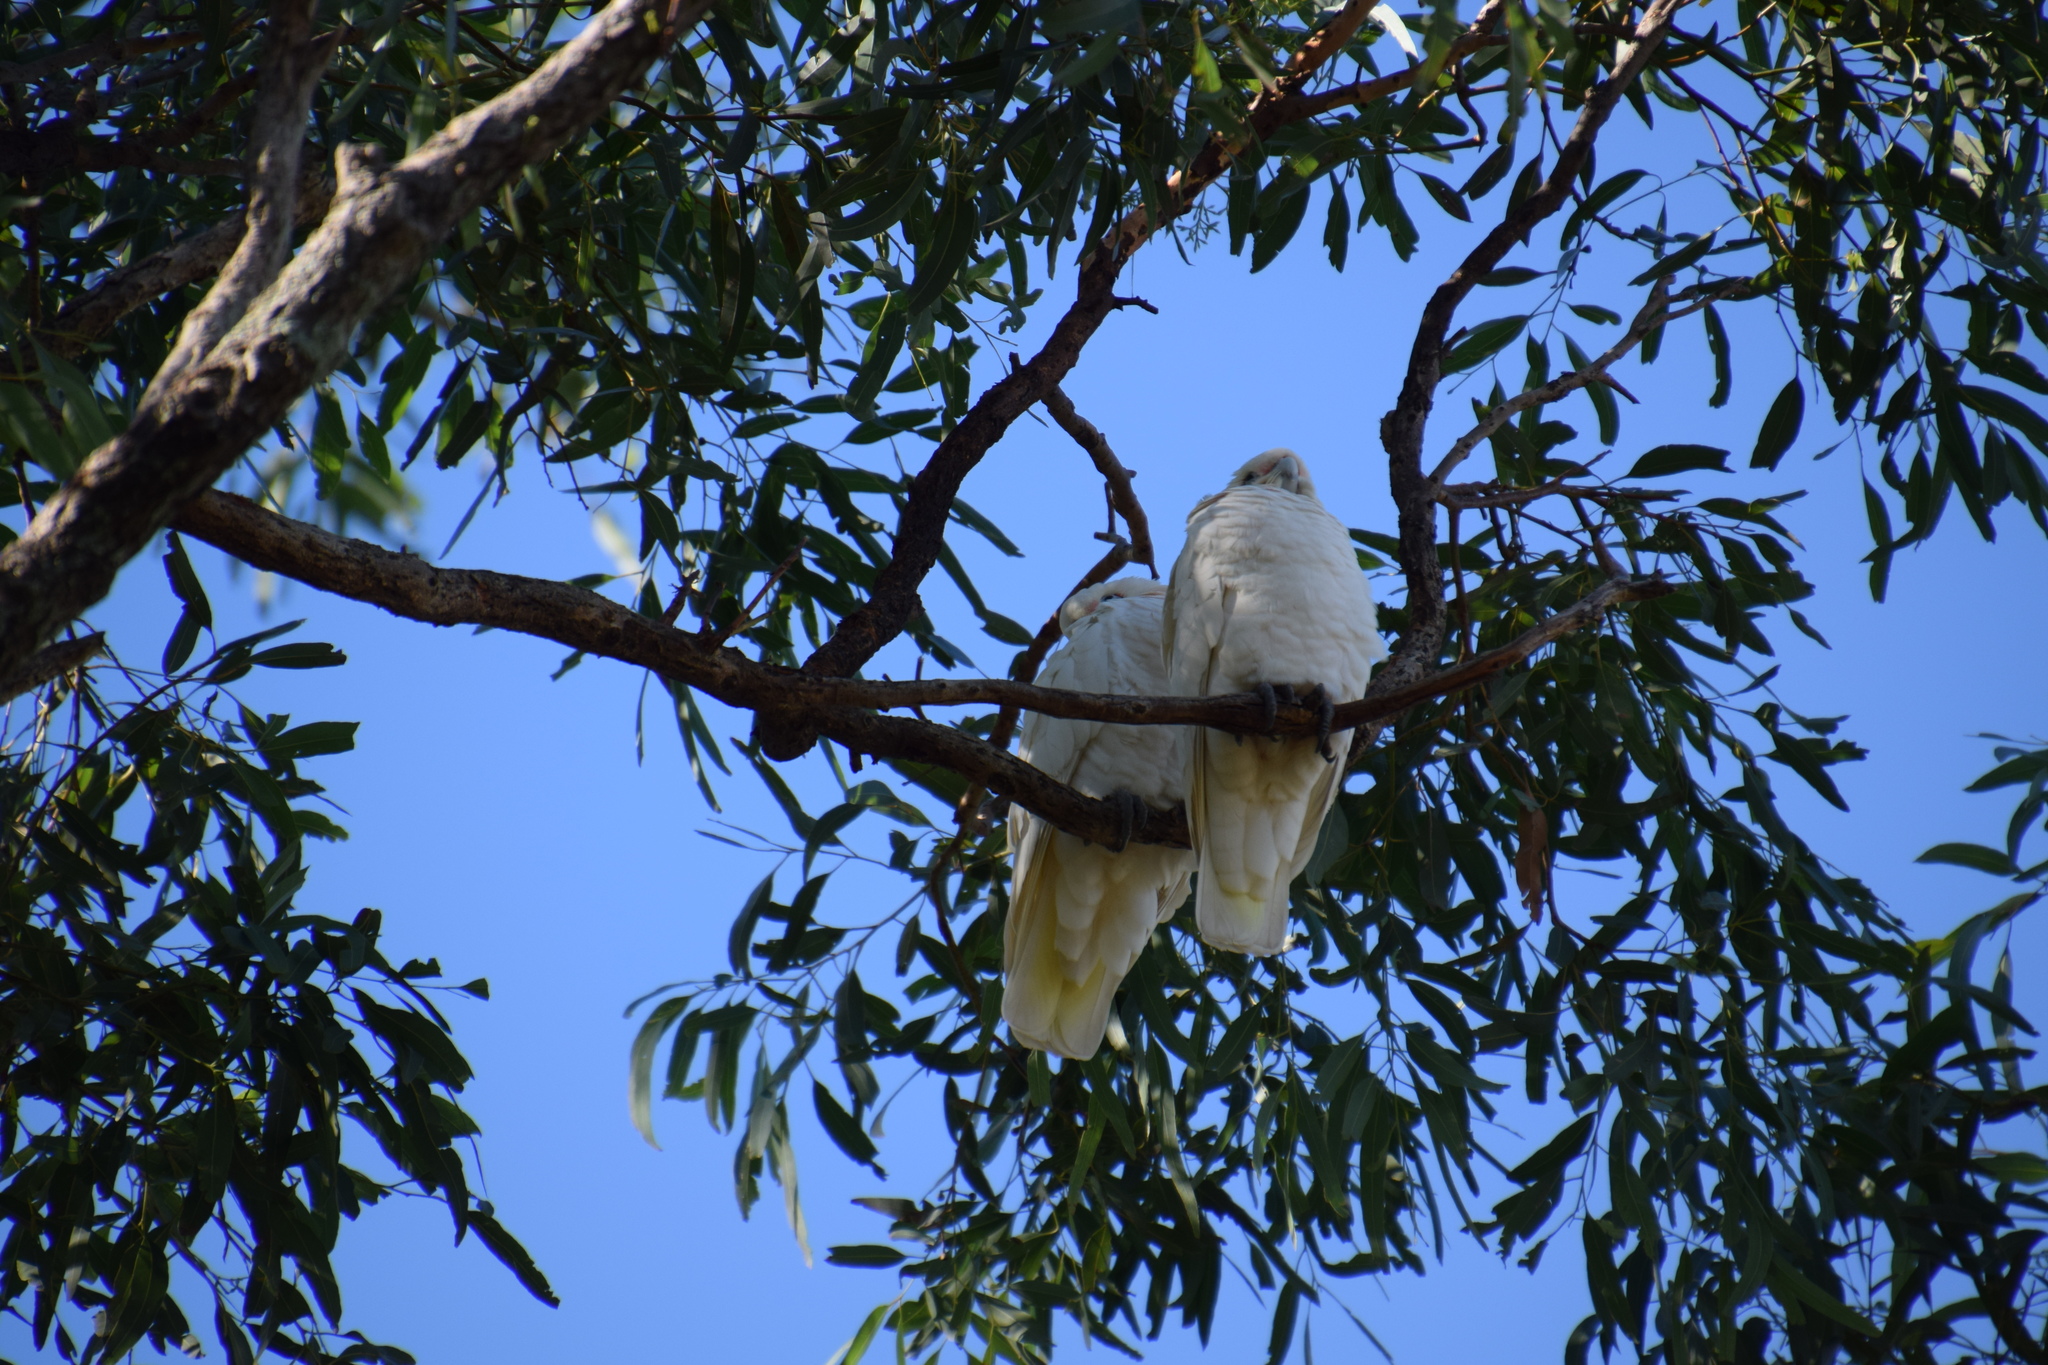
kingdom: Animalia
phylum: Chordata
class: Aves
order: Psittaciformes
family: Psittacidae
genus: Cacatua
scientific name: Cacatua sanguinea
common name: Little corella
